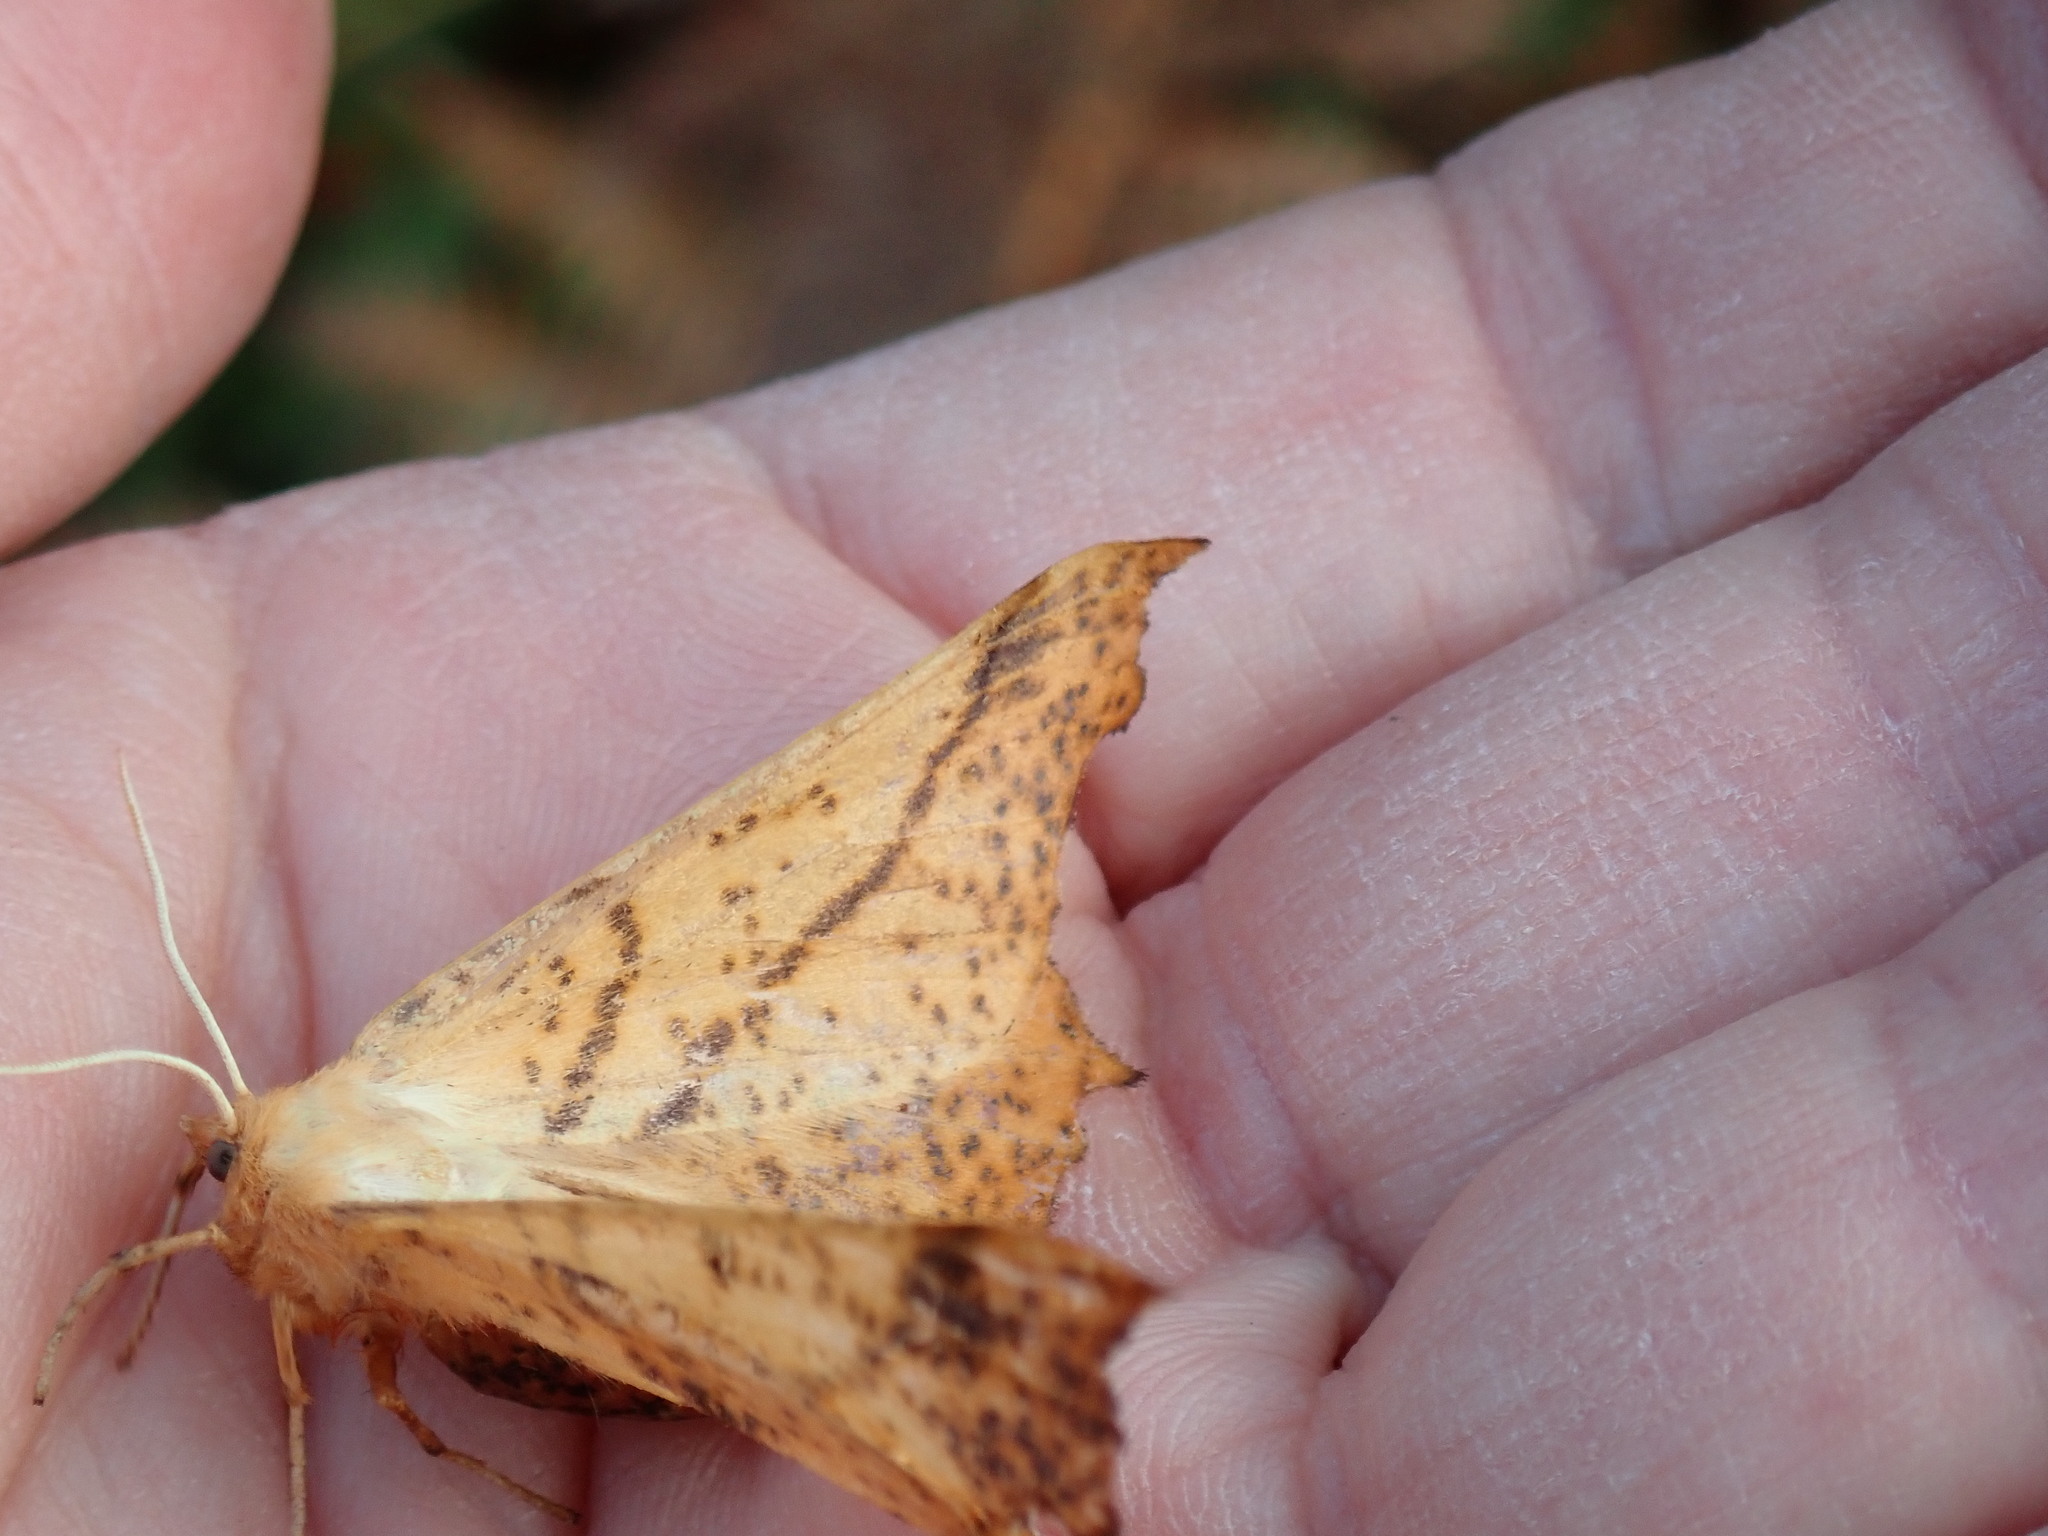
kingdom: Animalia
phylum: Arthropoda
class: Insecta
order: Lepidoptera
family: Geometridae
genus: Ennomos
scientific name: Ennomos magnaria
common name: Maple spanworm
